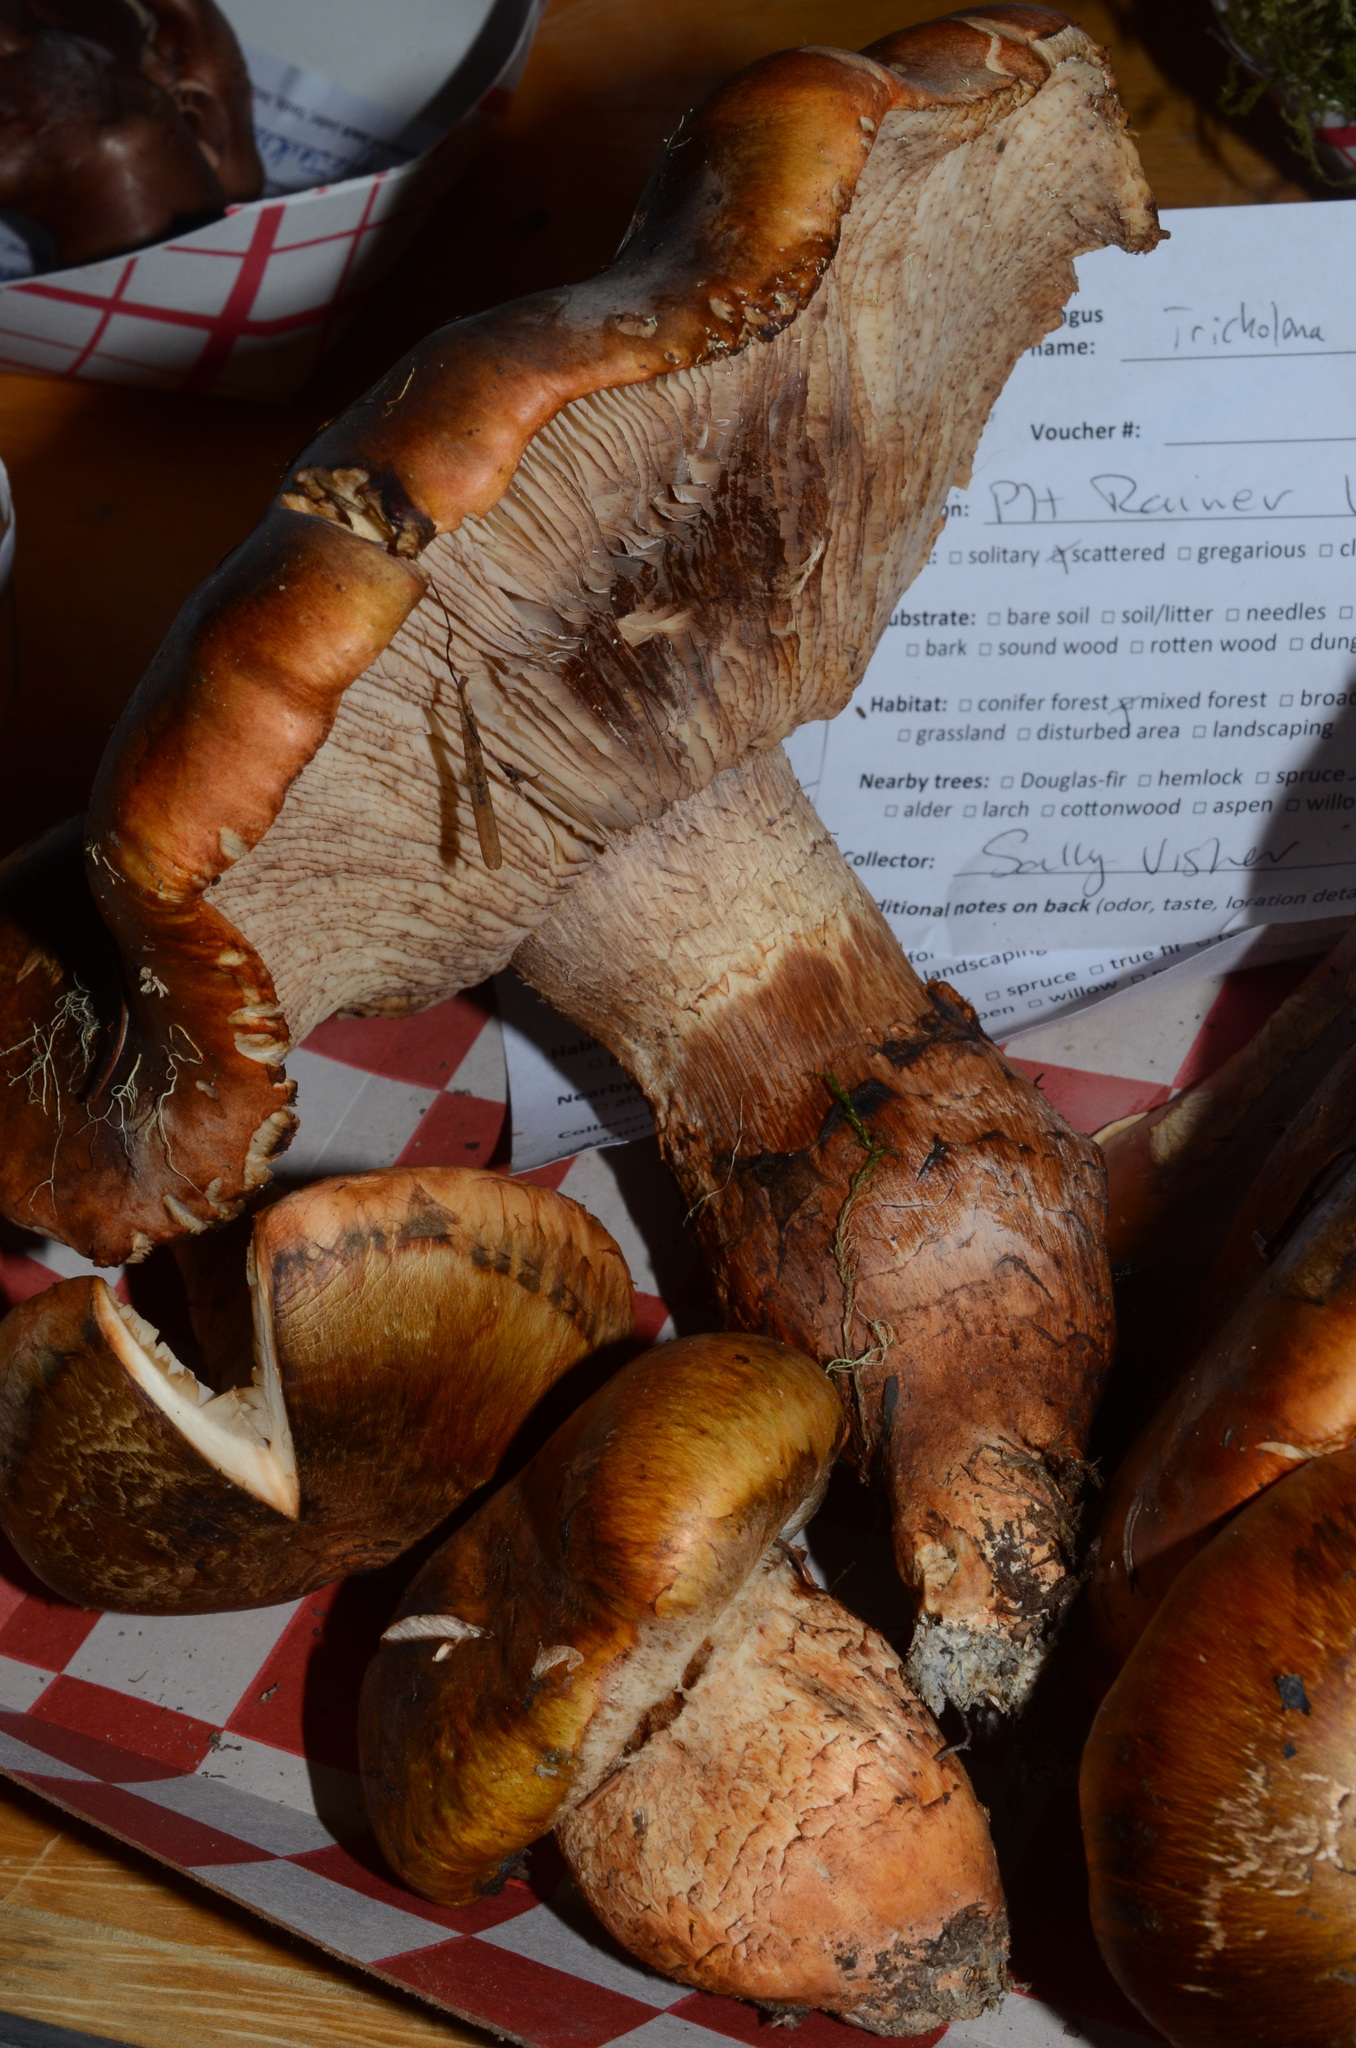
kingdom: Fungi
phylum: Basidiomycota
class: Agaricomycetes
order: Agaricales
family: Tricholomataceae
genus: Tricholoma
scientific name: Tricholoma focale
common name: Booted knight
